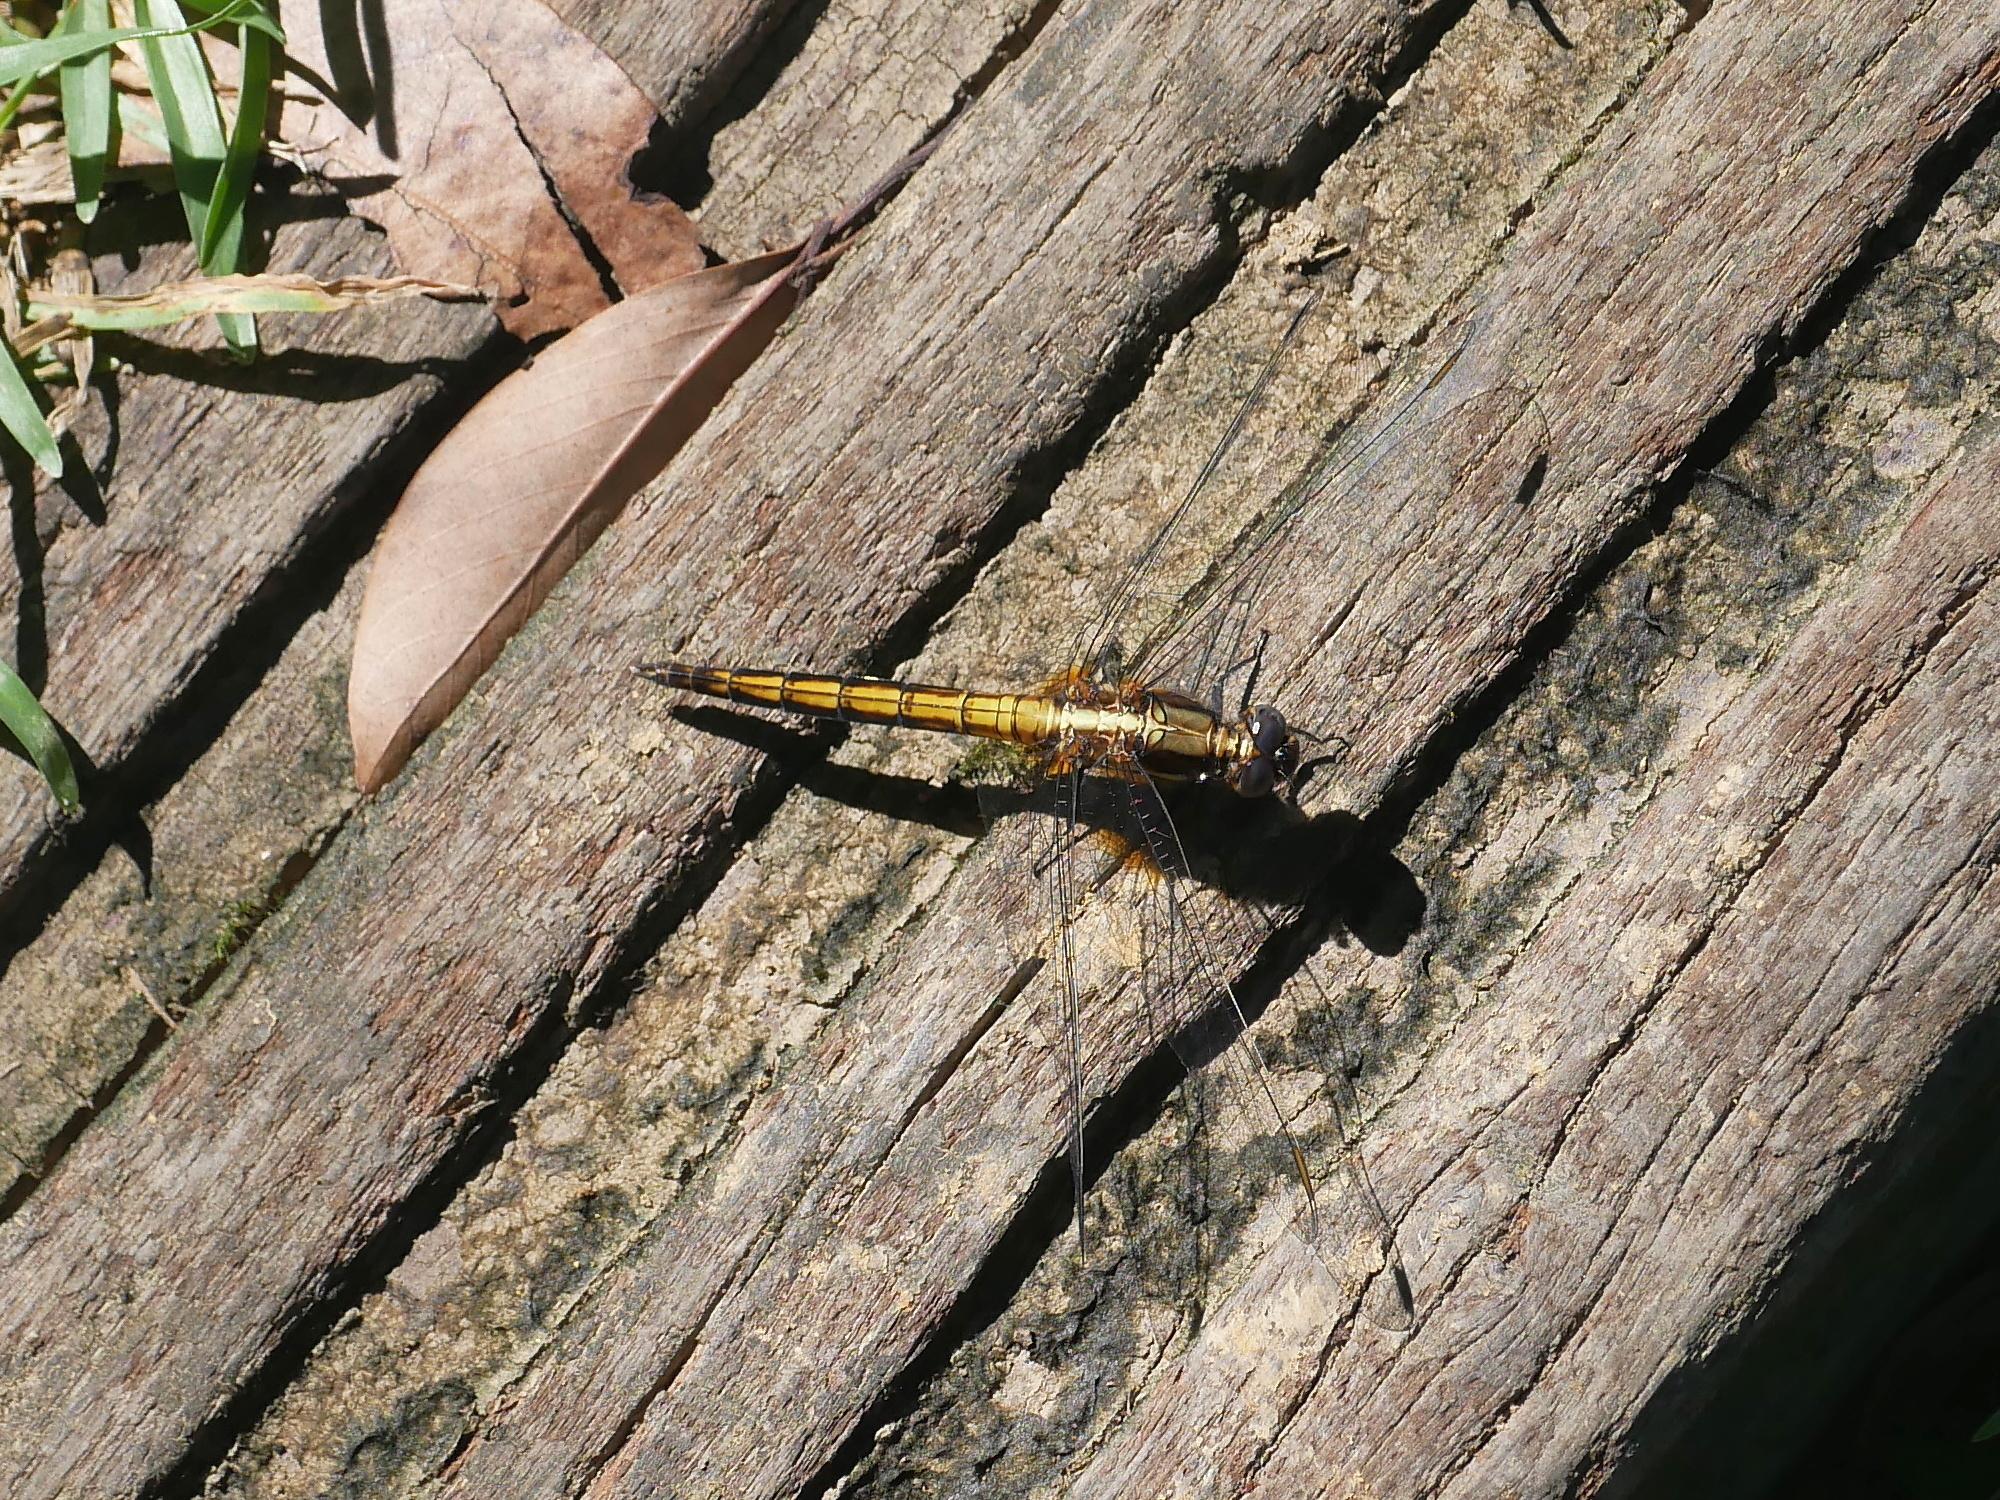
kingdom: Animalia
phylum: Arthropoda
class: Insecta
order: Odonata
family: Libellulidae
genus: Orthetrum
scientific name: Orthetrum triangulare
